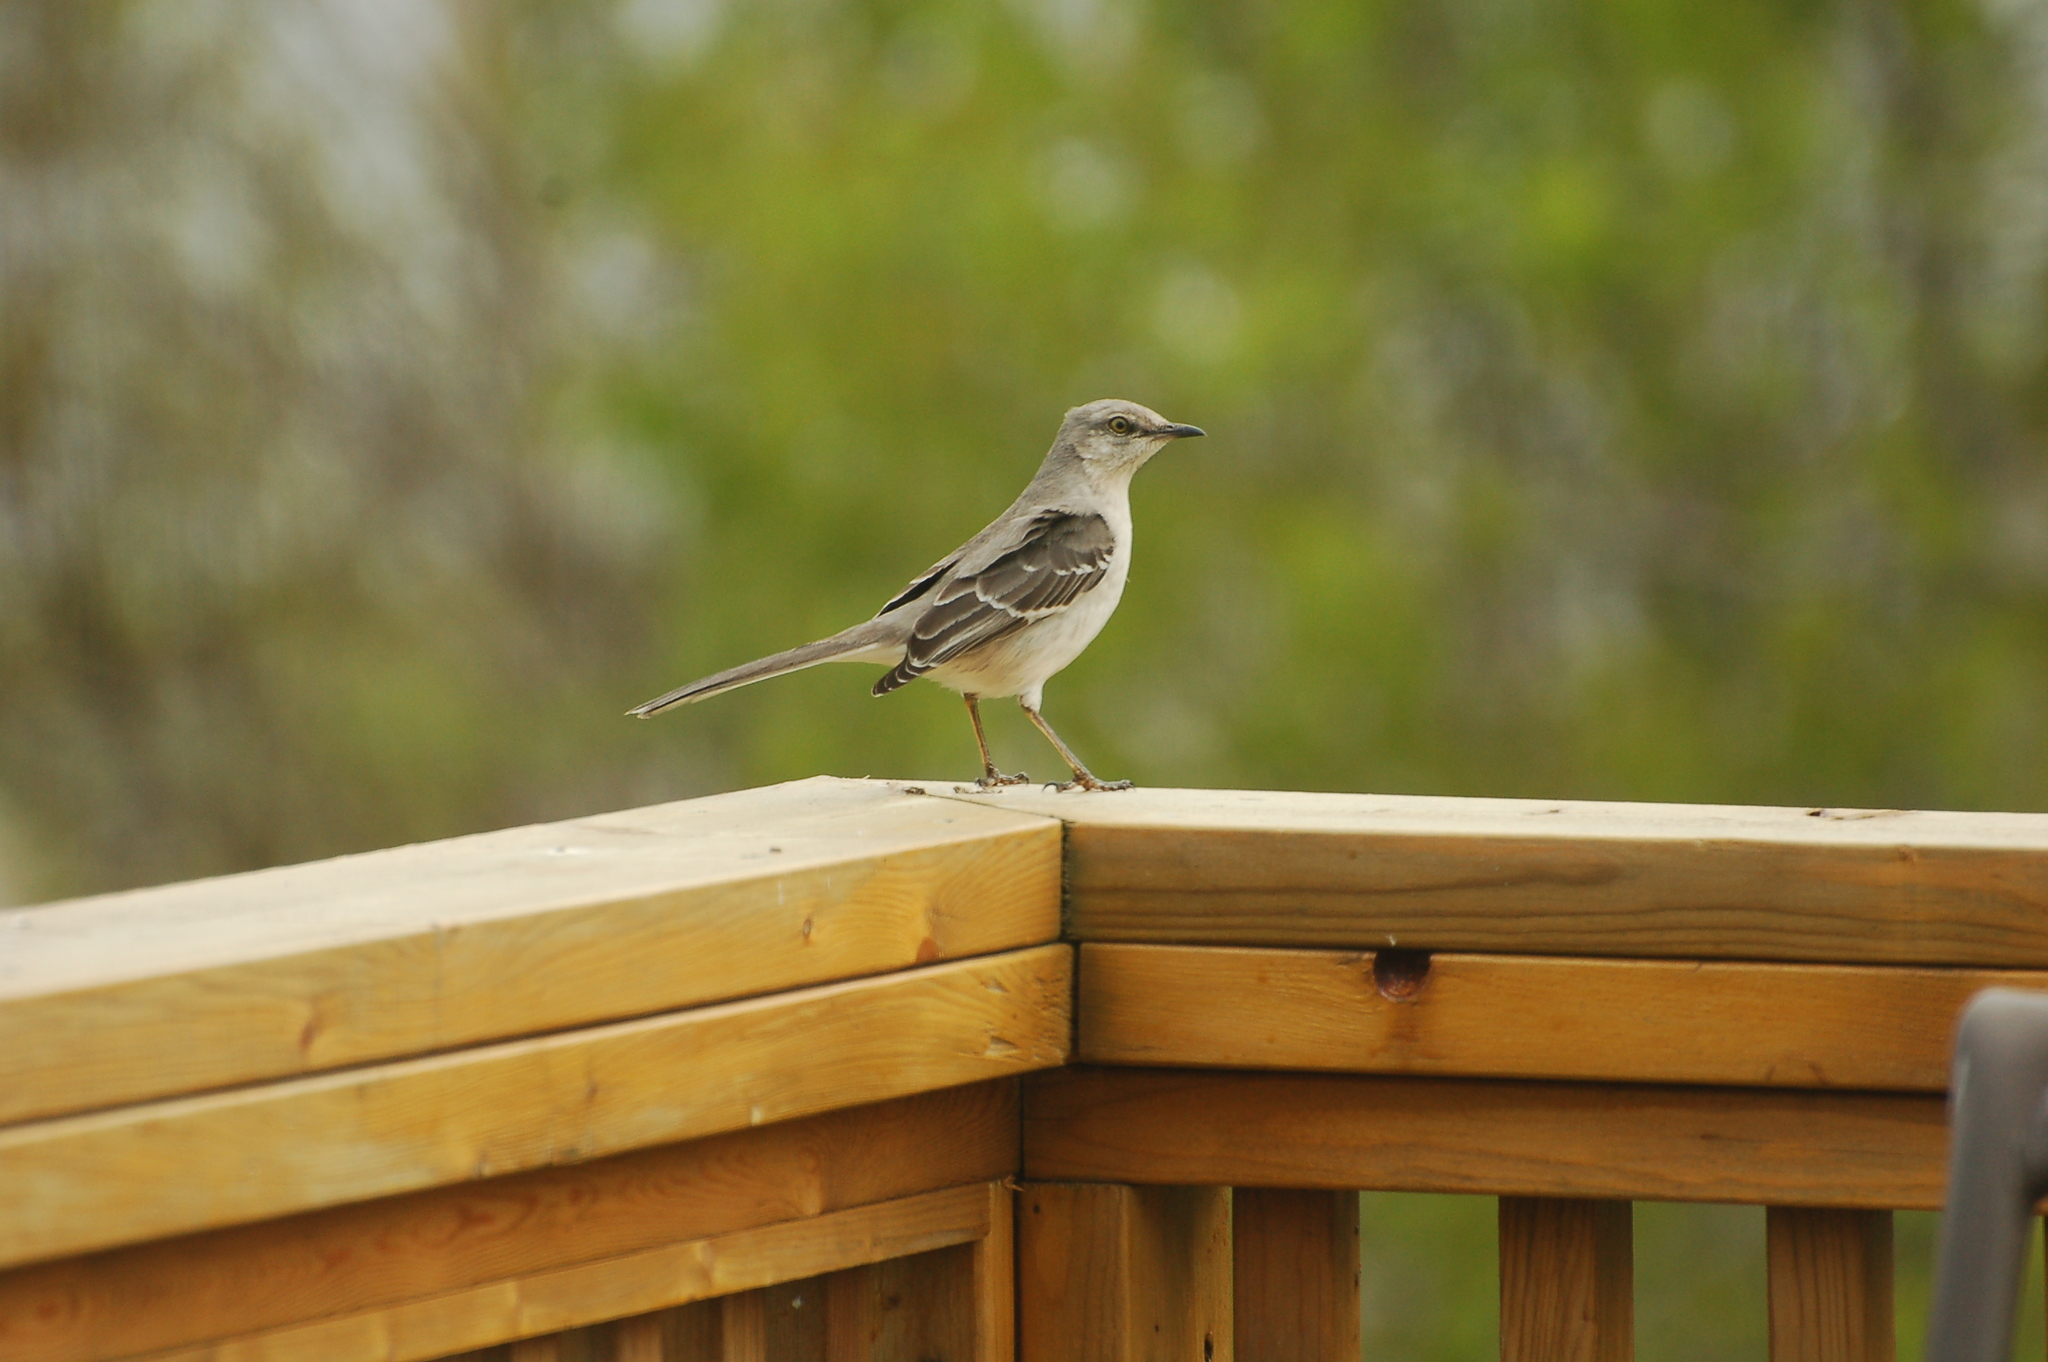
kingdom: Animalia
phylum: Chordata
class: Aves
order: Passeriformes
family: Mimidae
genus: Mimus
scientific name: Mimus polyglottos
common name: Northern mockingbird
